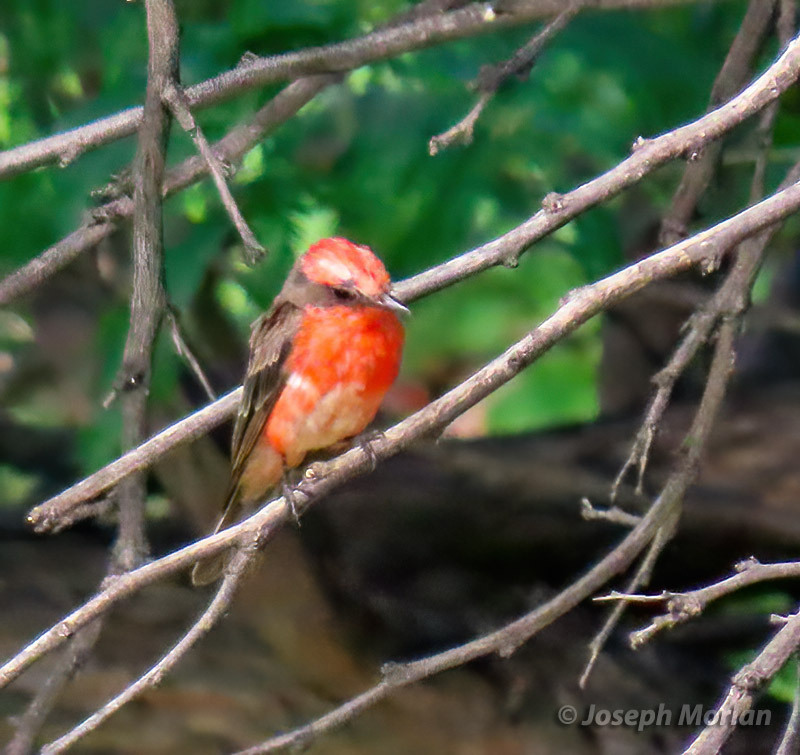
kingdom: Animalia
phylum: Chordata
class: Aves
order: Passeriformes
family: Tyrannidae
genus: Pyrocephalus
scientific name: Pyrocephalus rubinus
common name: Vermilion flycatcher
